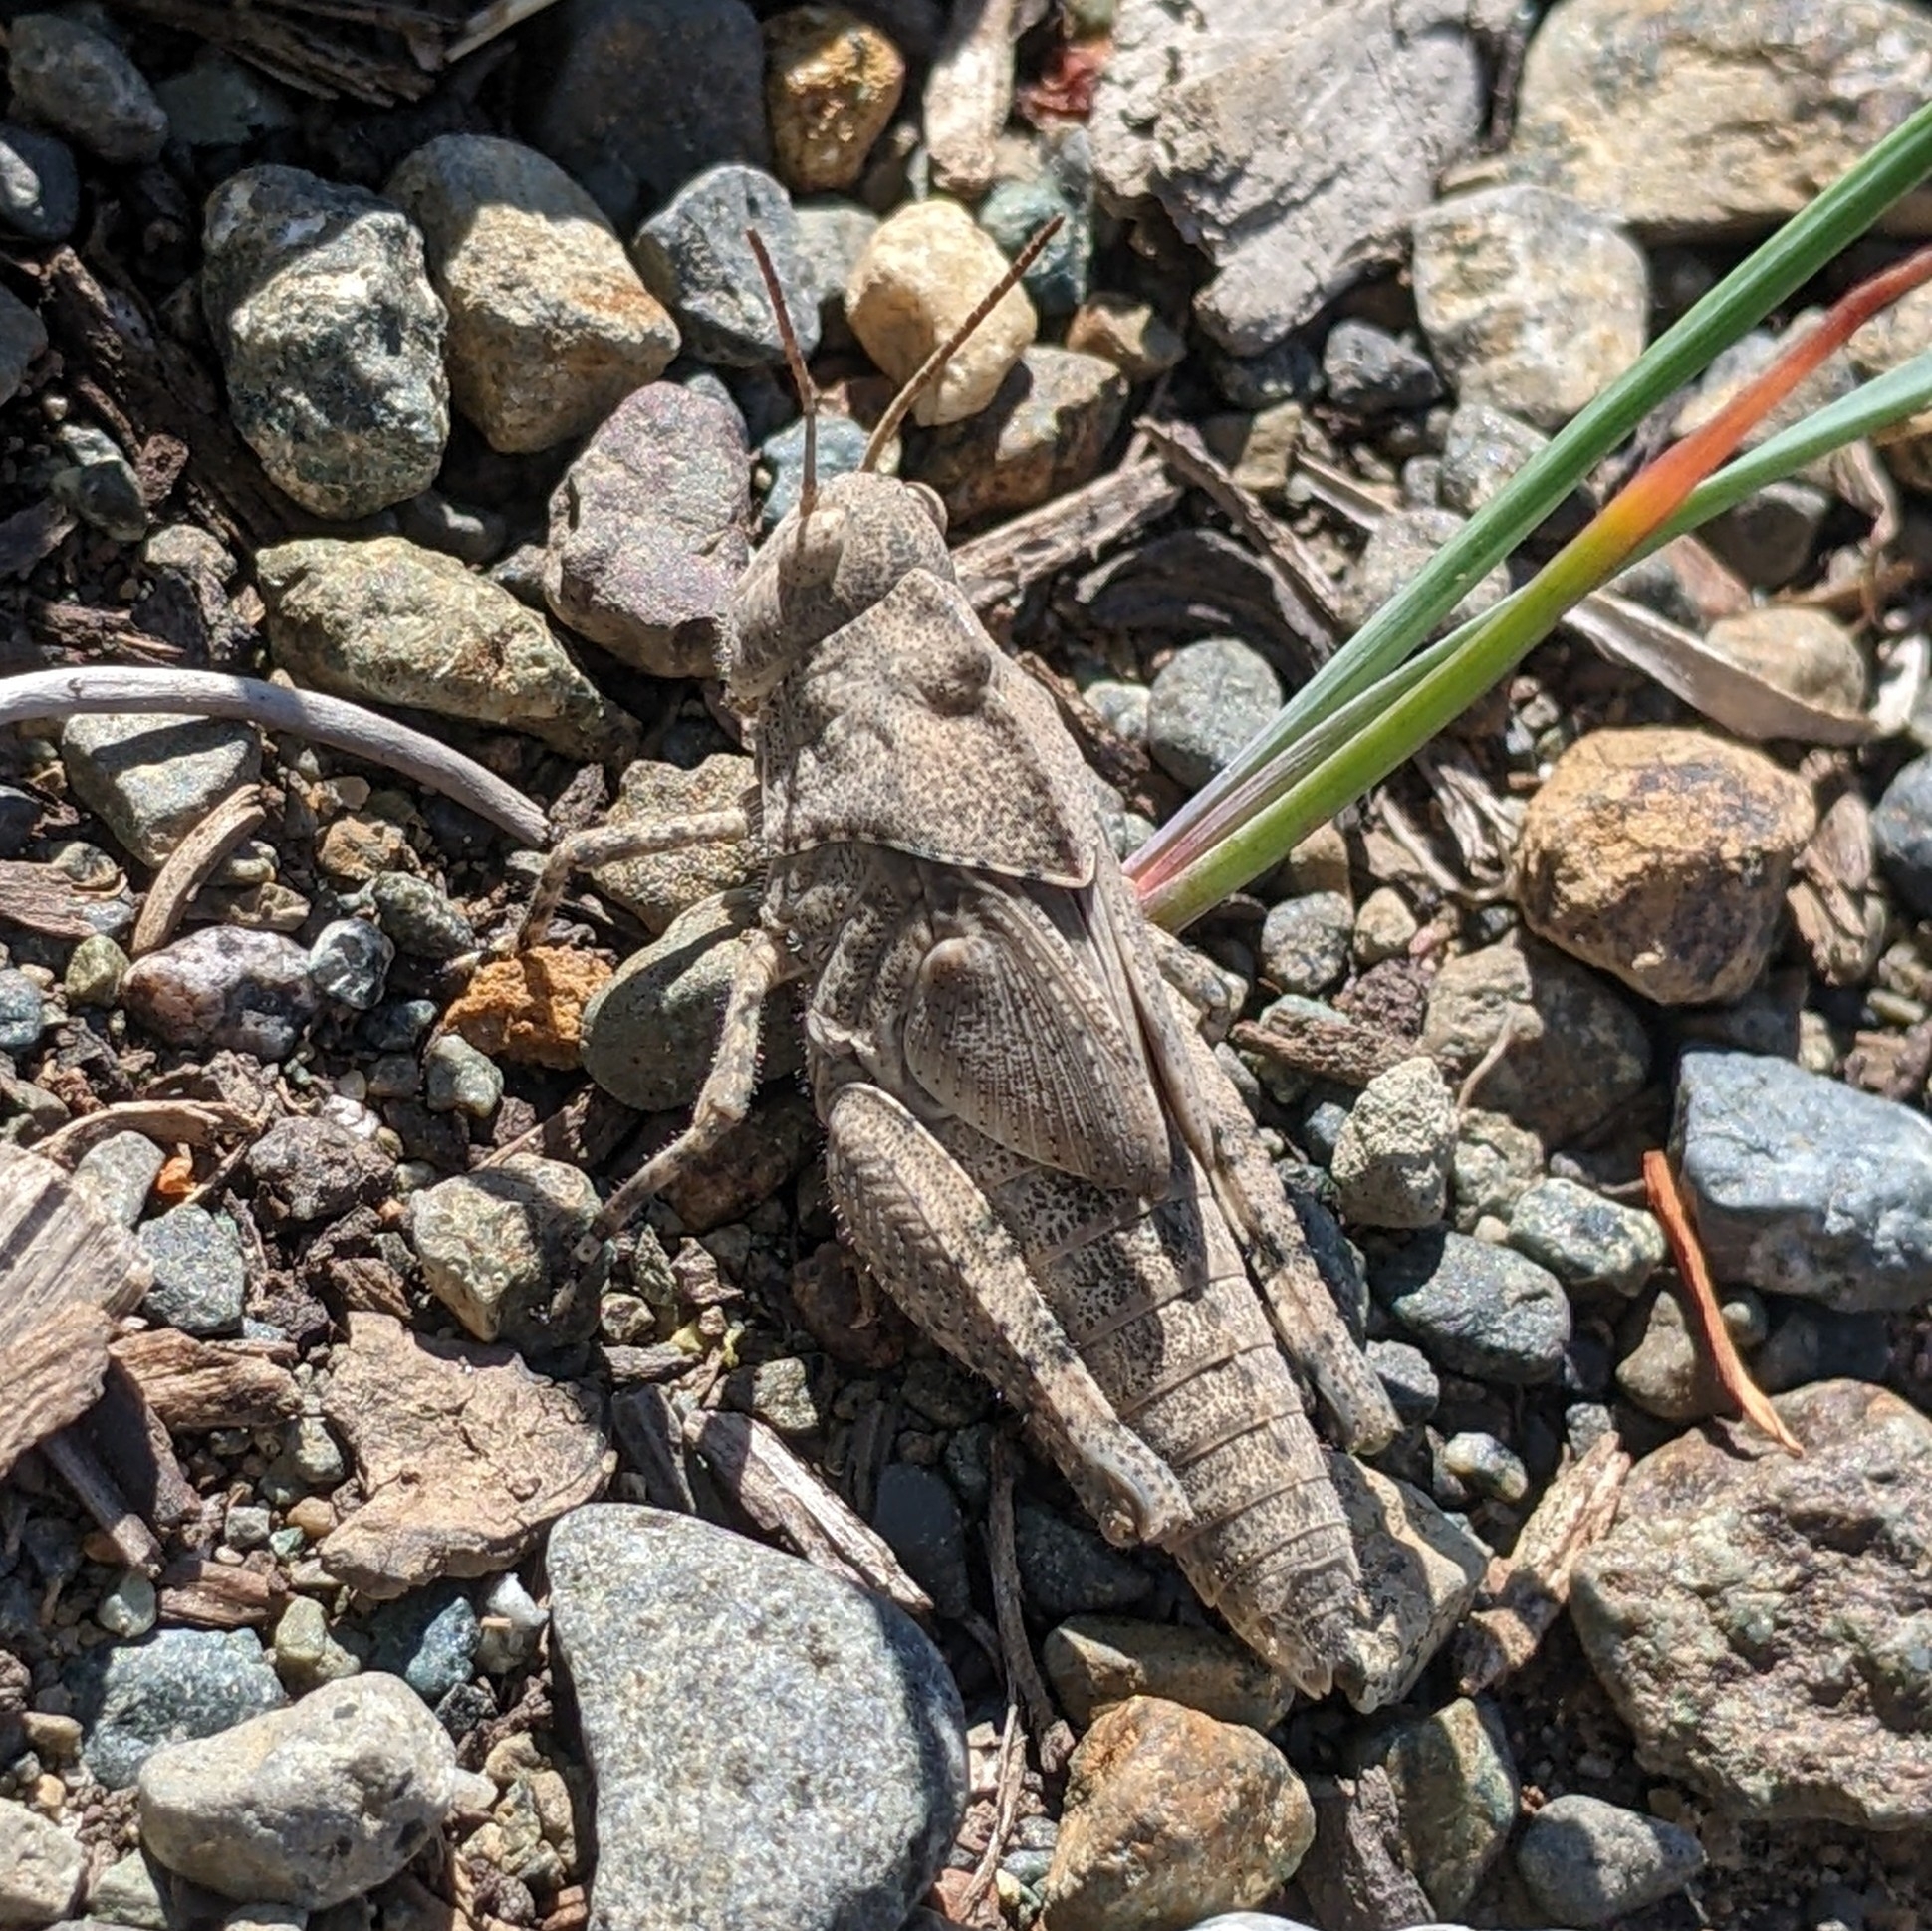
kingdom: Animalia
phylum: Arthropoda
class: Insecta
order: Orthoptera
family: Acrididae
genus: Dissosteira
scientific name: Dissosteira carolina
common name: Carolina grasshopper
